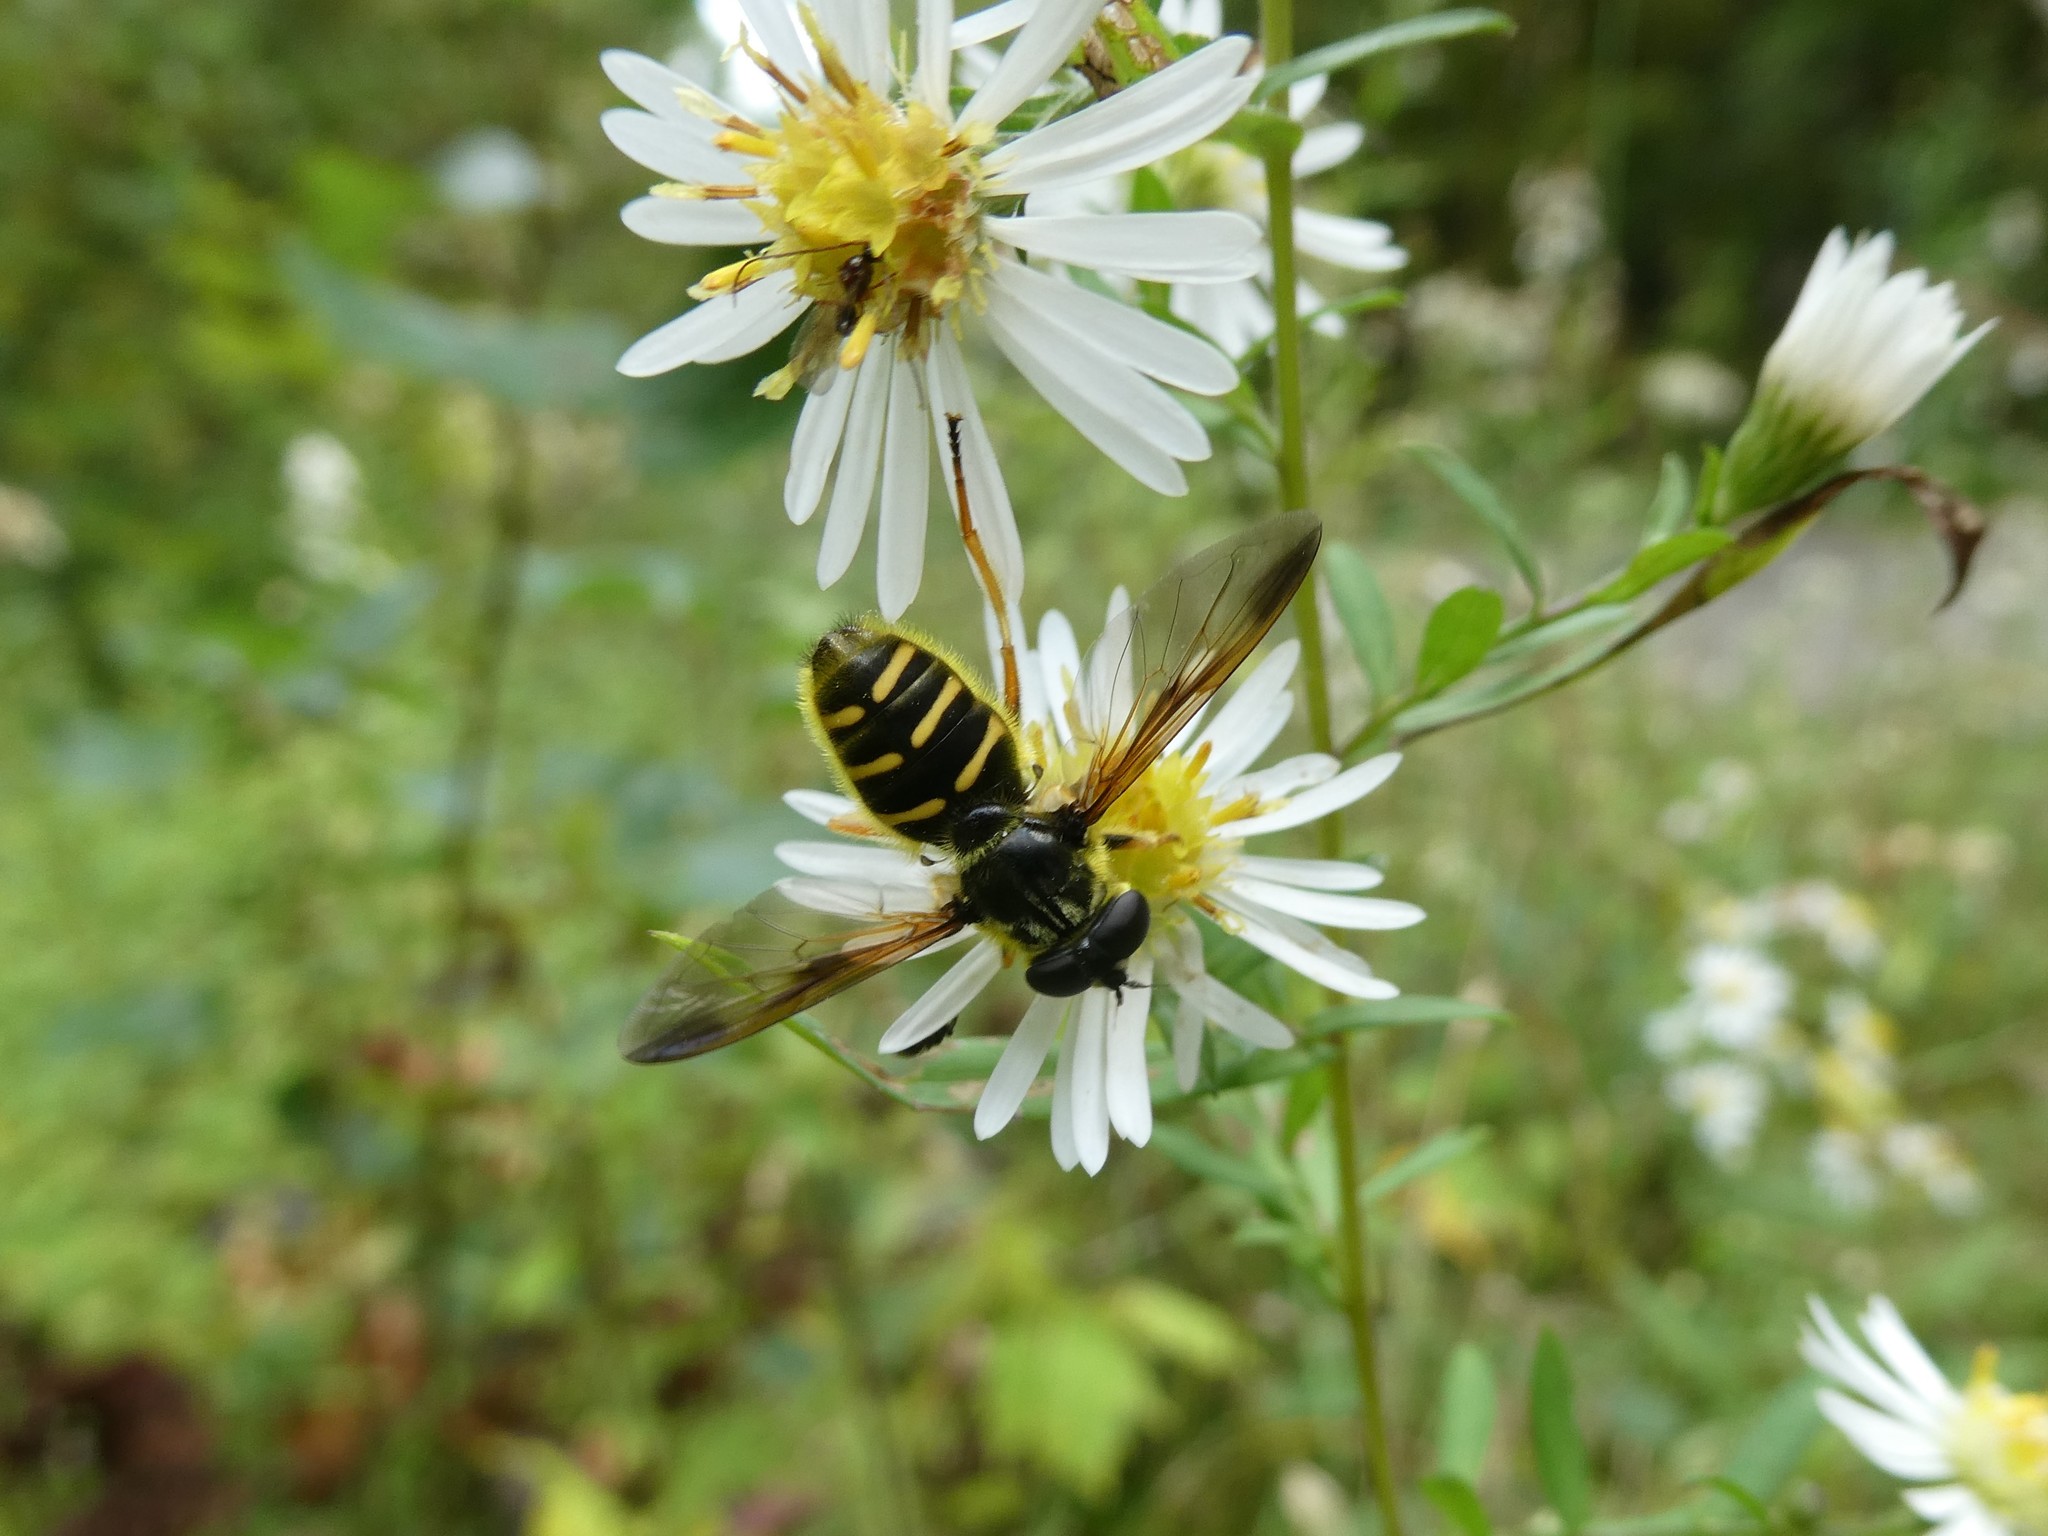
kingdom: Animalia
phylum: Arthropoda
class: Insecta
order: Diptera
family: Syrphidae
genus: Sericomyia
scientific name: Sericomyia chrysotoxoides
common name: Oblique-banded pond fly
